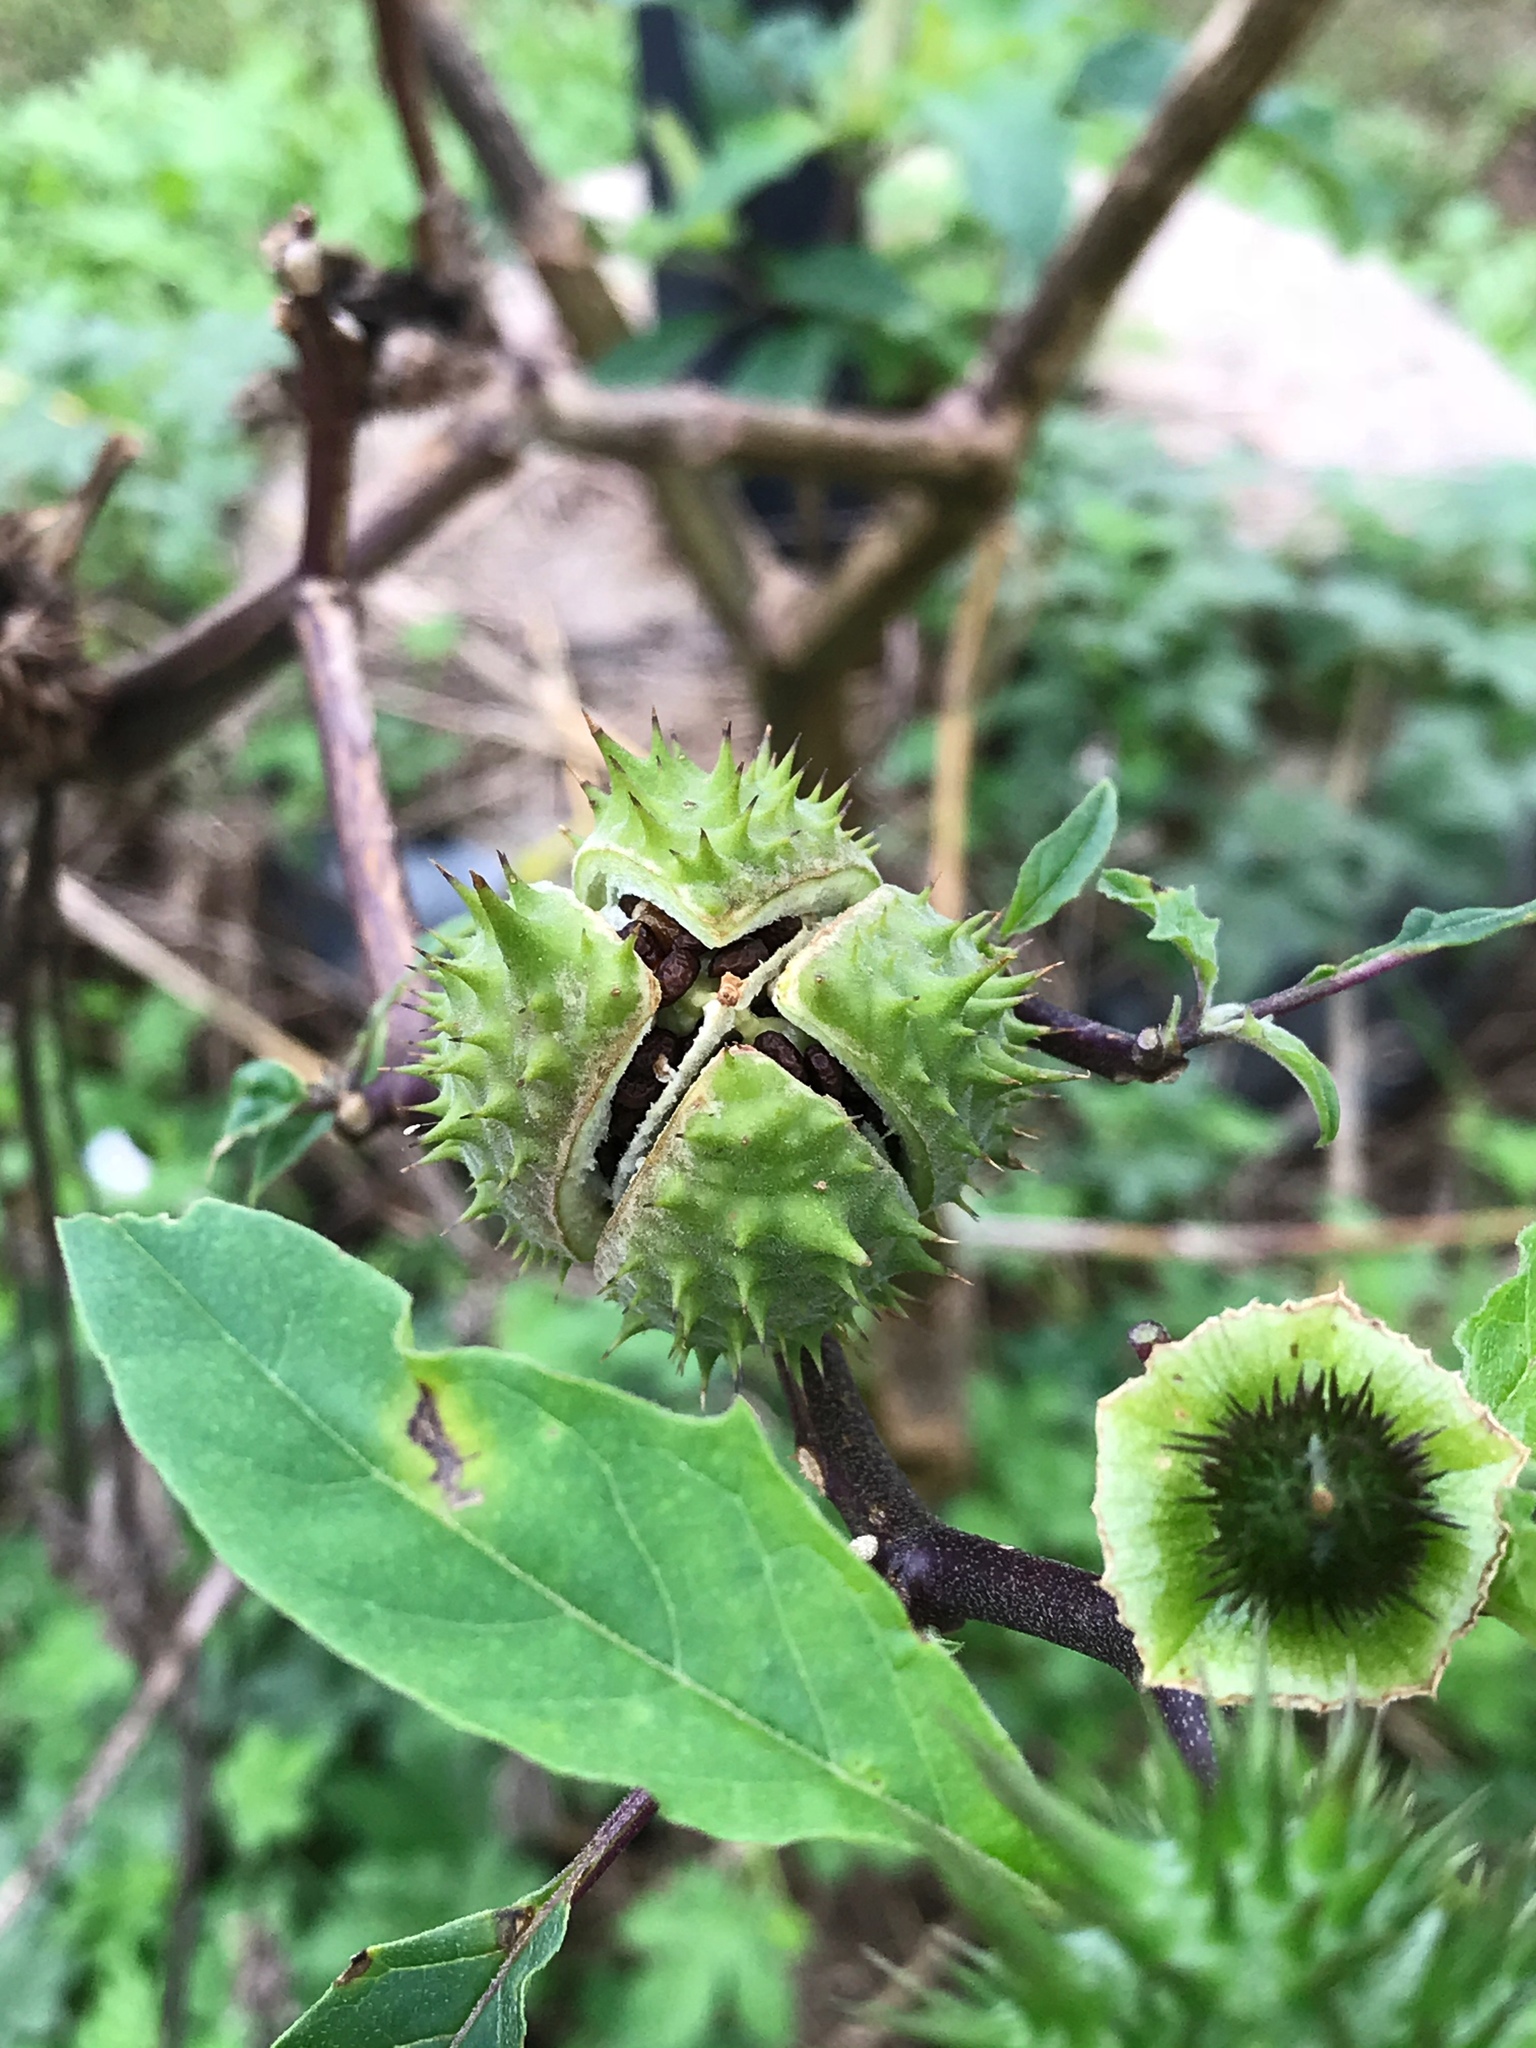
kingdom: Plantae
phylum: Tracheophyta
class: Magnoliopsida
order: Solanales
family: Solanaceae
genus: Datura
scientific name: Datura stramonium
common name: Thorn-apple
